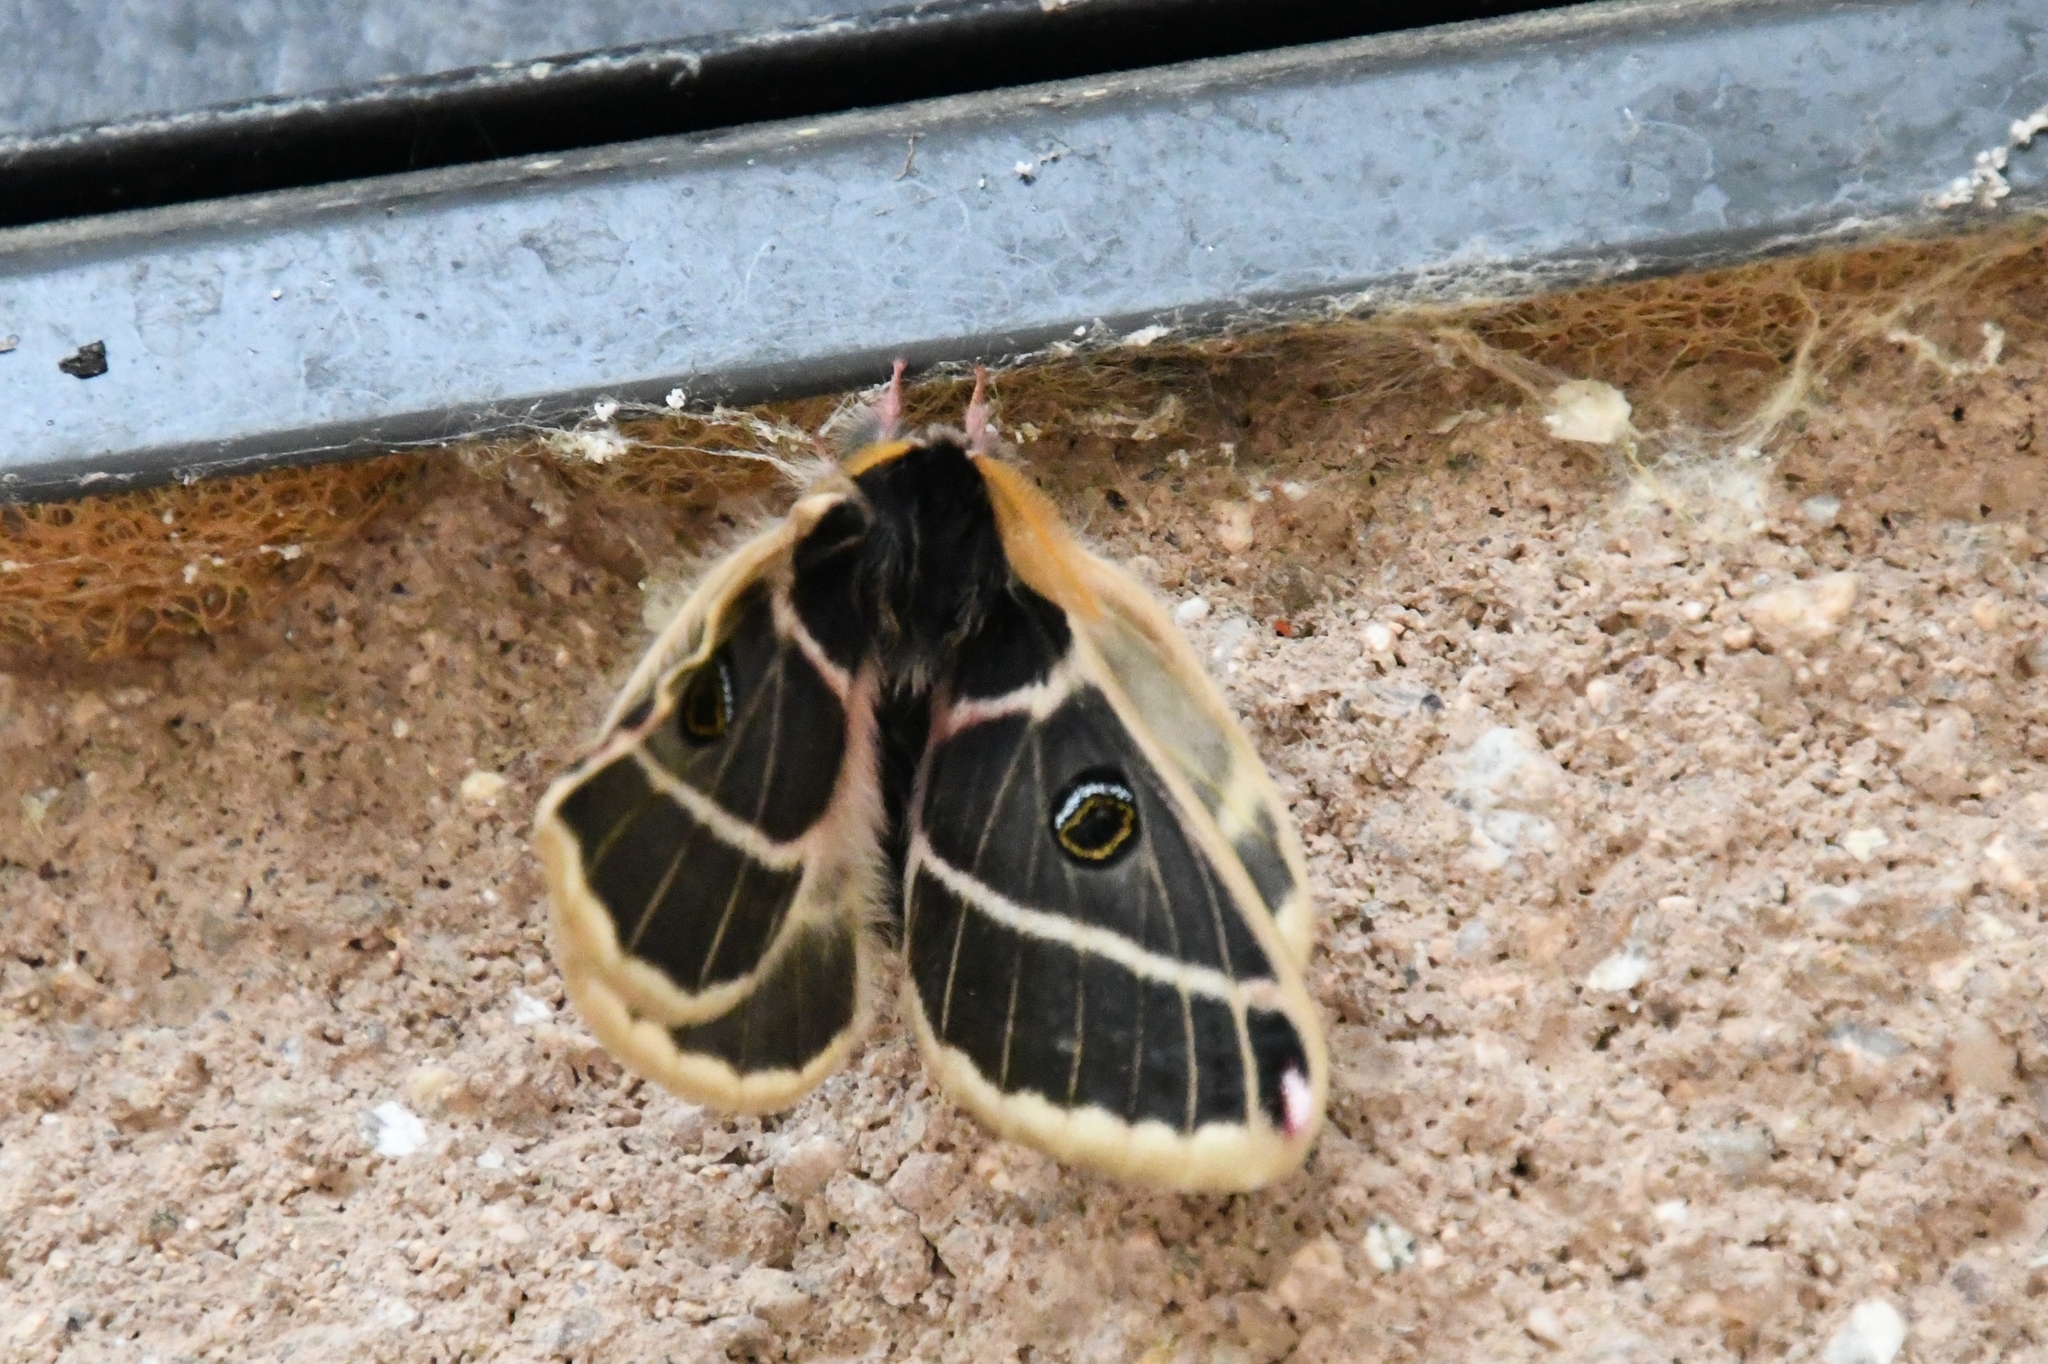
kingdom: Animalia
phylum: Arthropoda
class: Insecta
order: Lepidoptera
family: Saturniidae
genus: Agapema
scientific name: Agapema homogena
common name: Rocky mountain agapema
